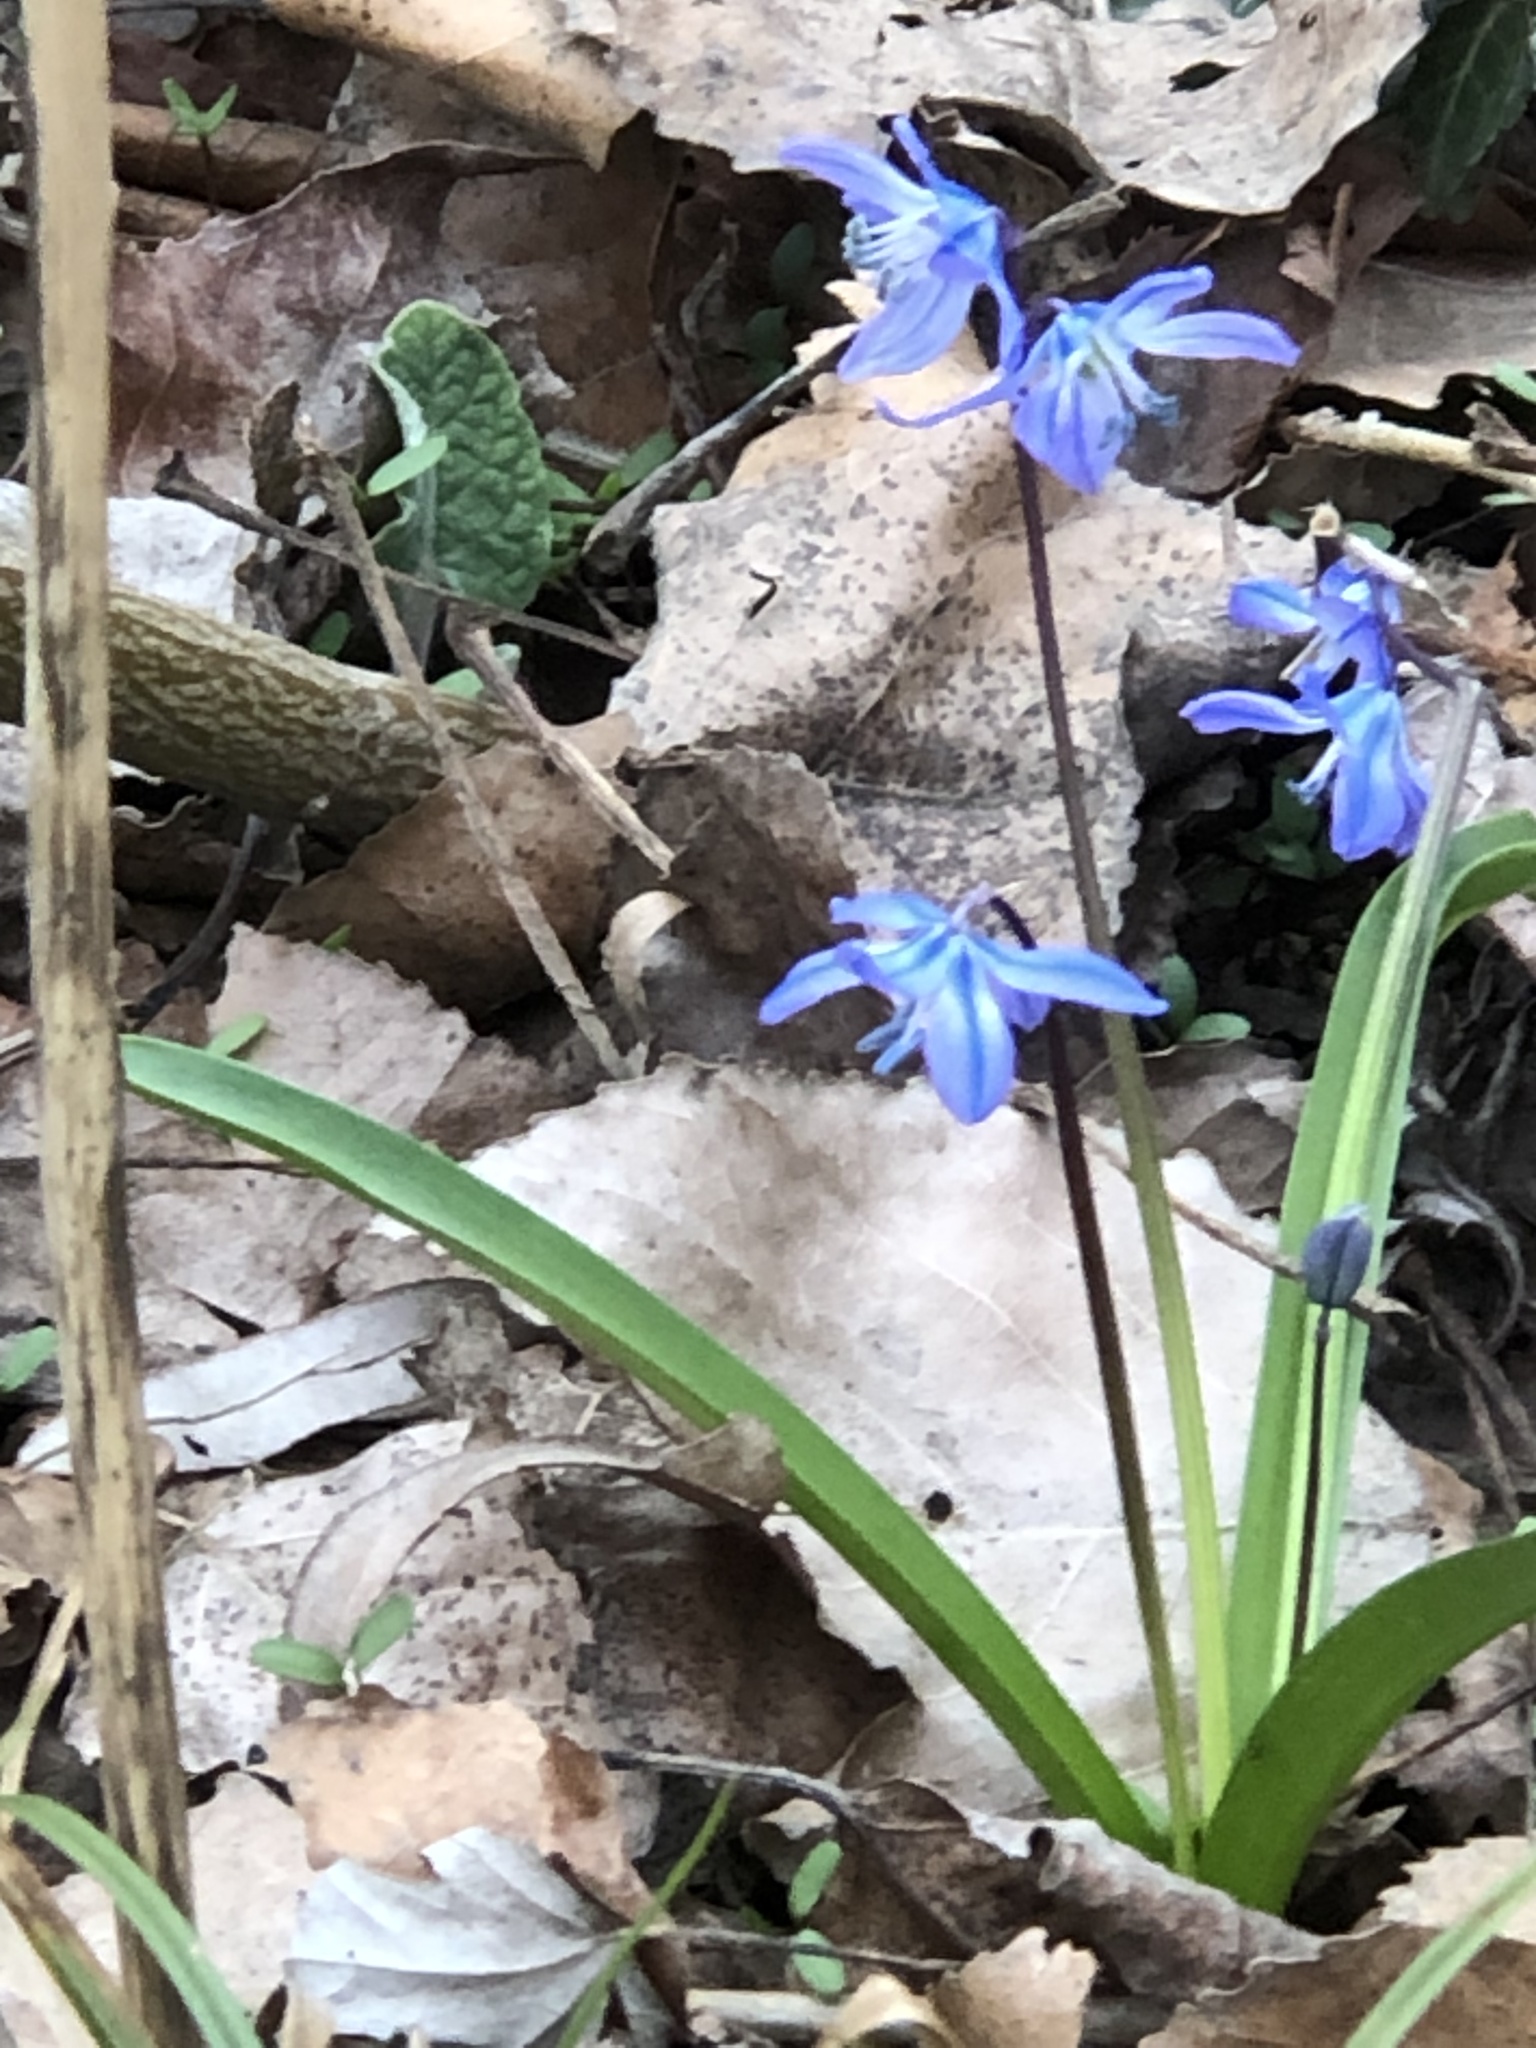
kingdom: Plantae
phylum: Tracheophyta
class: Liliopsida
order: Asparagales
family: Asparagaceae
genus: Scilla
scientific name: Scilla siberica
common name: Siberian squill
